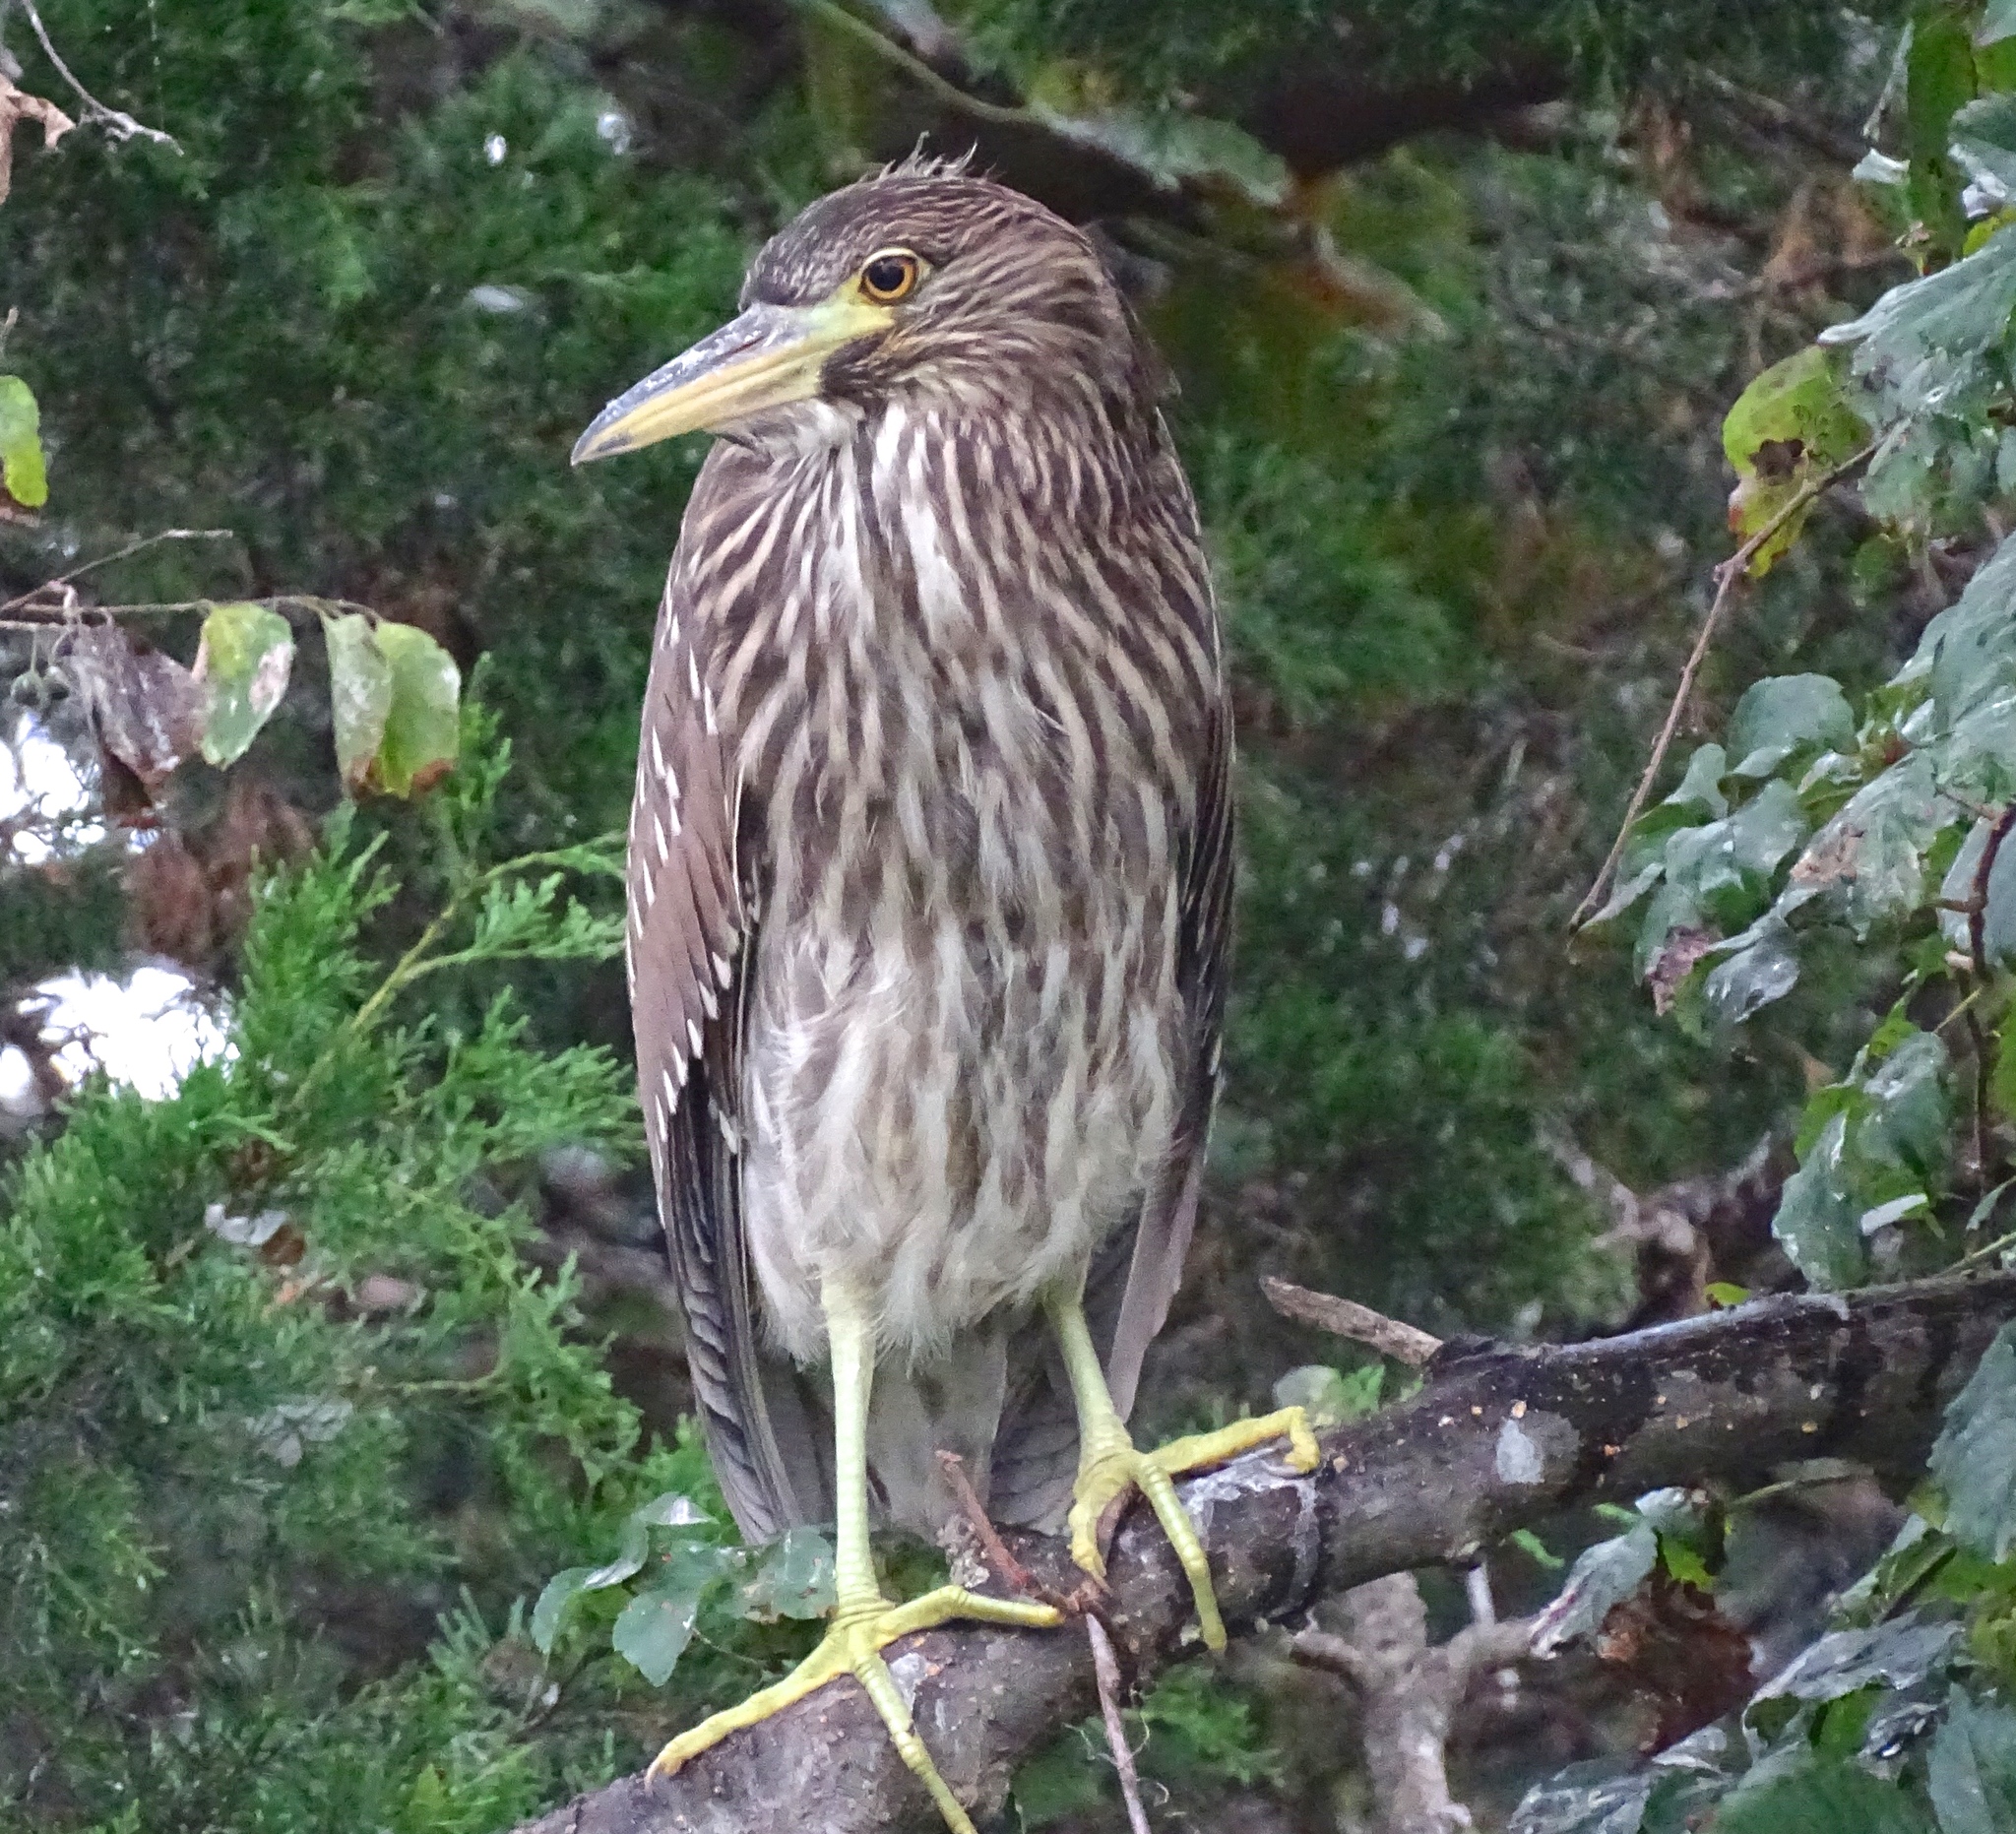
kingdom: Animalia
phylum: Chordata
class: Aves
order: Pelecaniformes
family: Ardeidae
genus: Nycticorax
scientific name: Nycticorax nycticorax
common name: Black-crowned night heron
